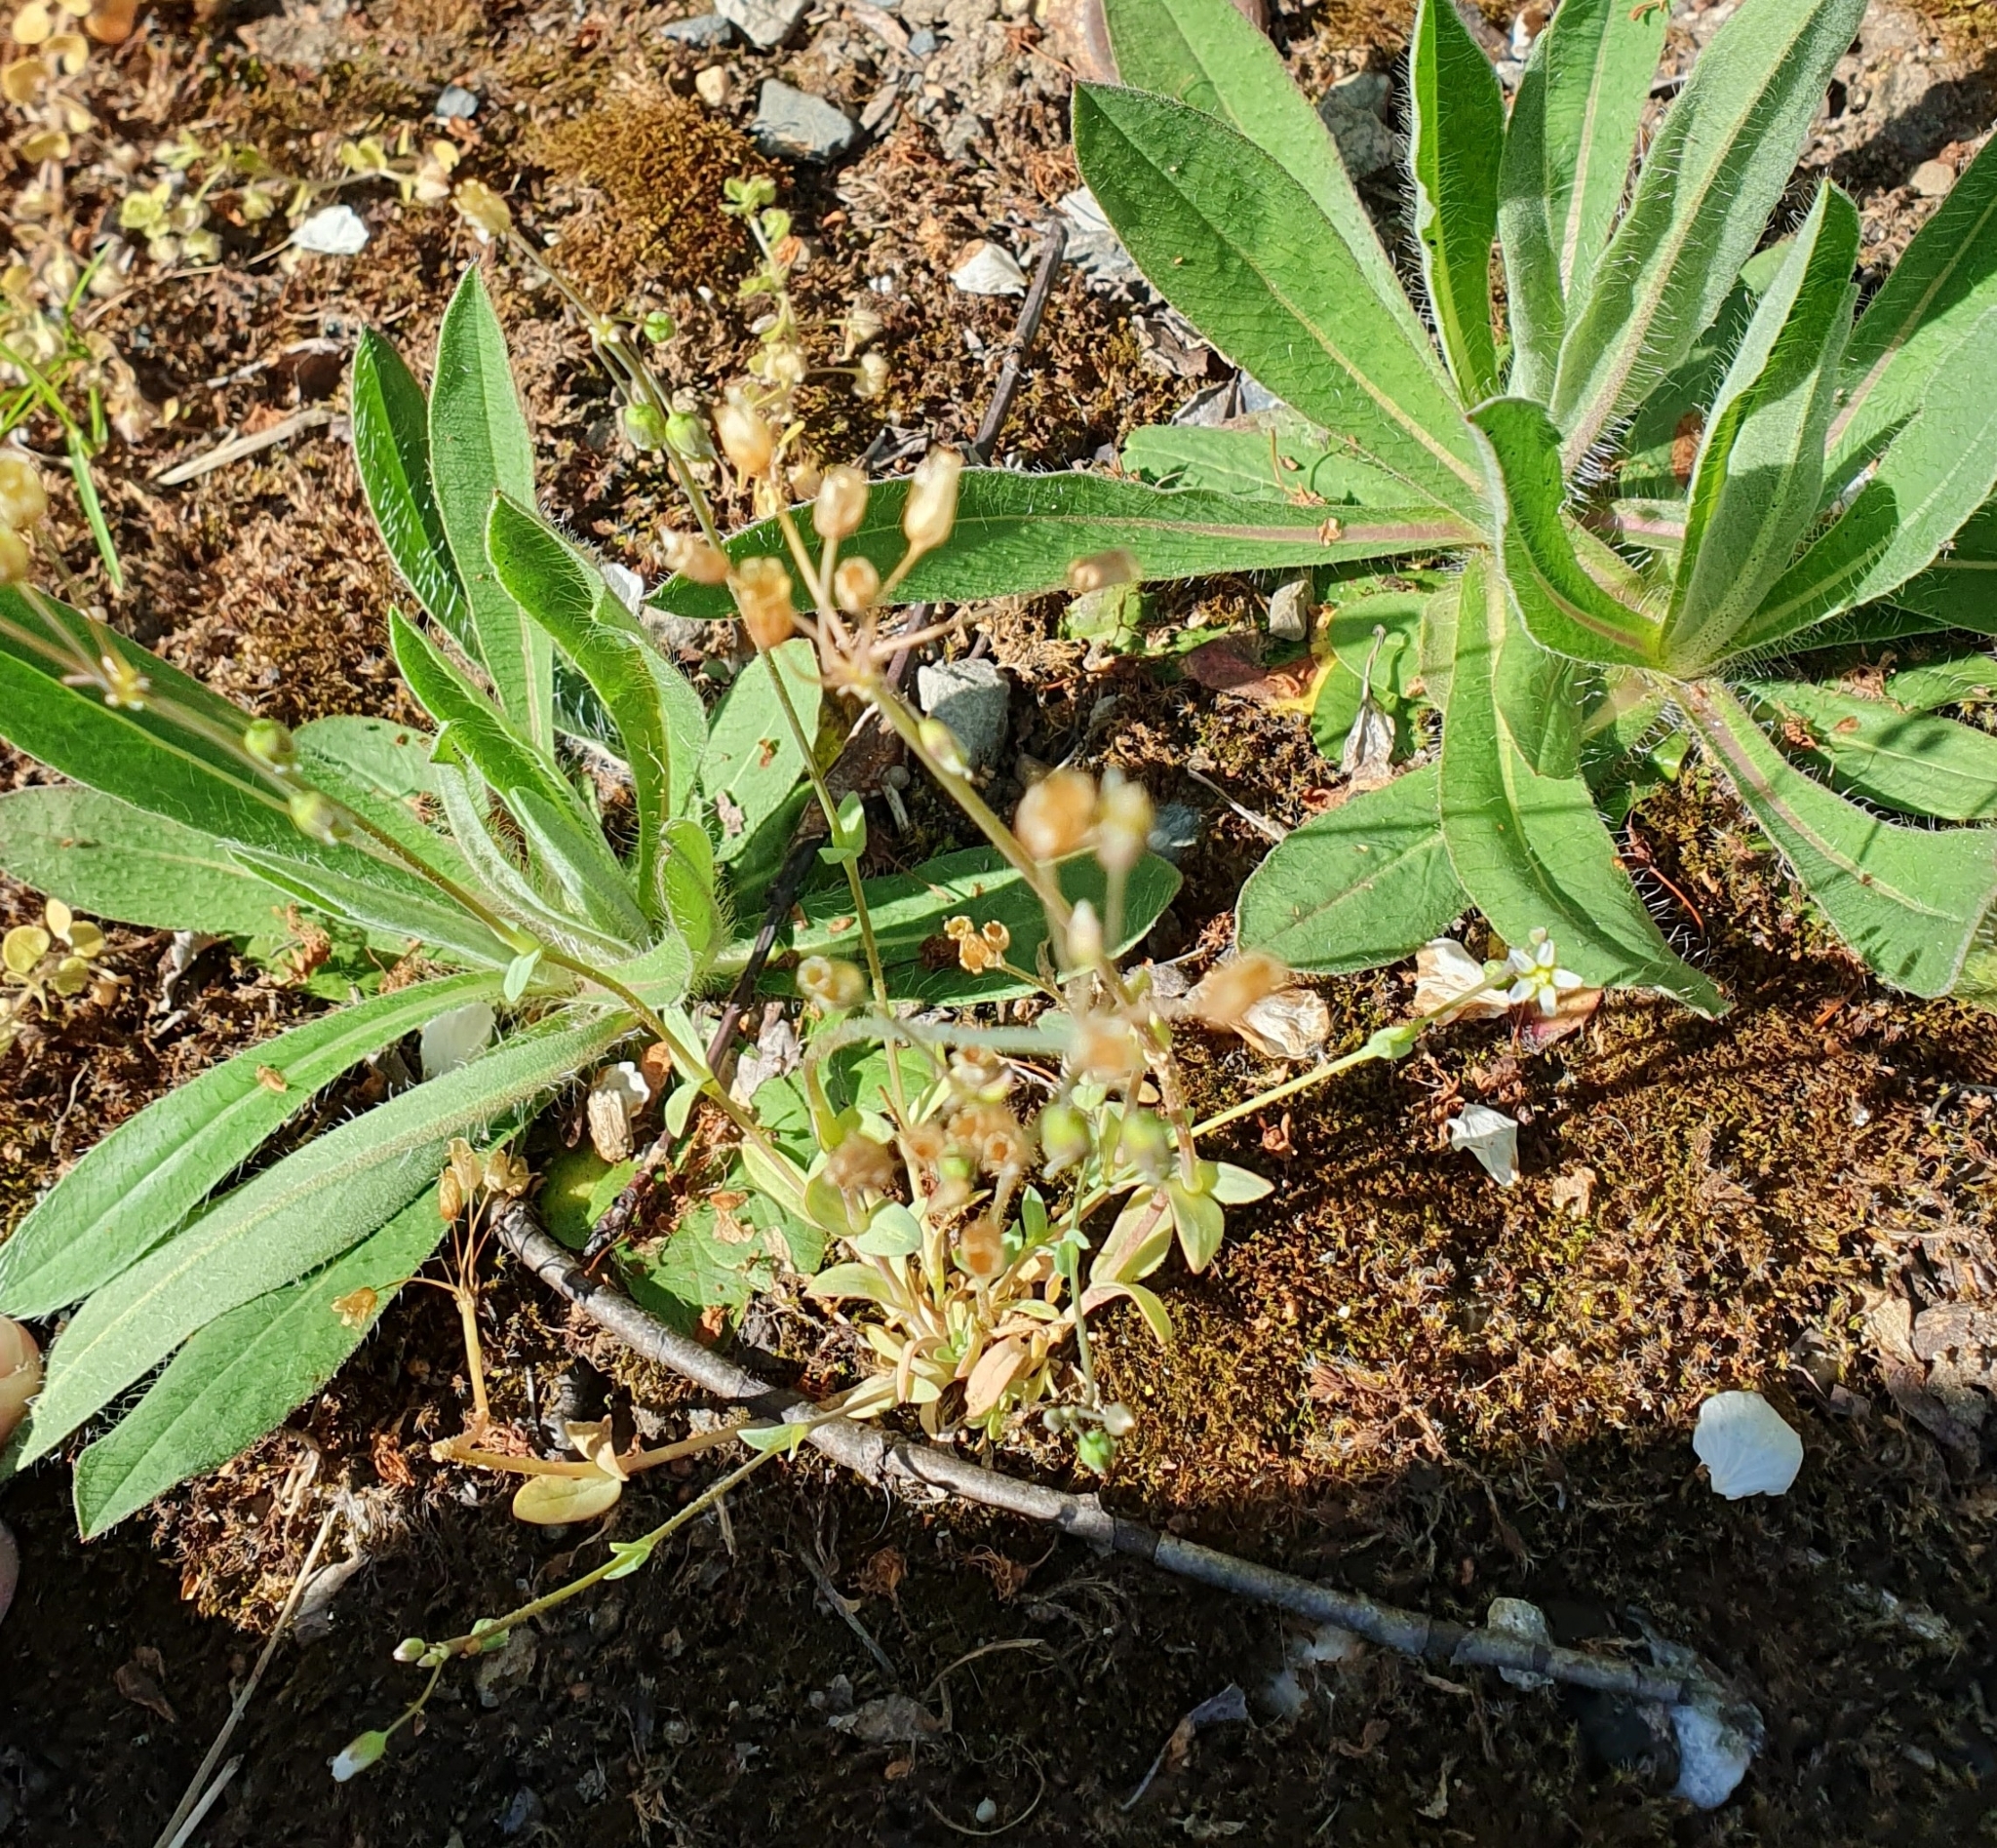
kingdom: Plantae
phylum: Tracheophyta
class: Magnoliopsida
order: Caryophyllales
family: Caryophyllaceae
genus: Holosteum
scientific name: Holosteum umbellatum
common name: Jagged chickweed
